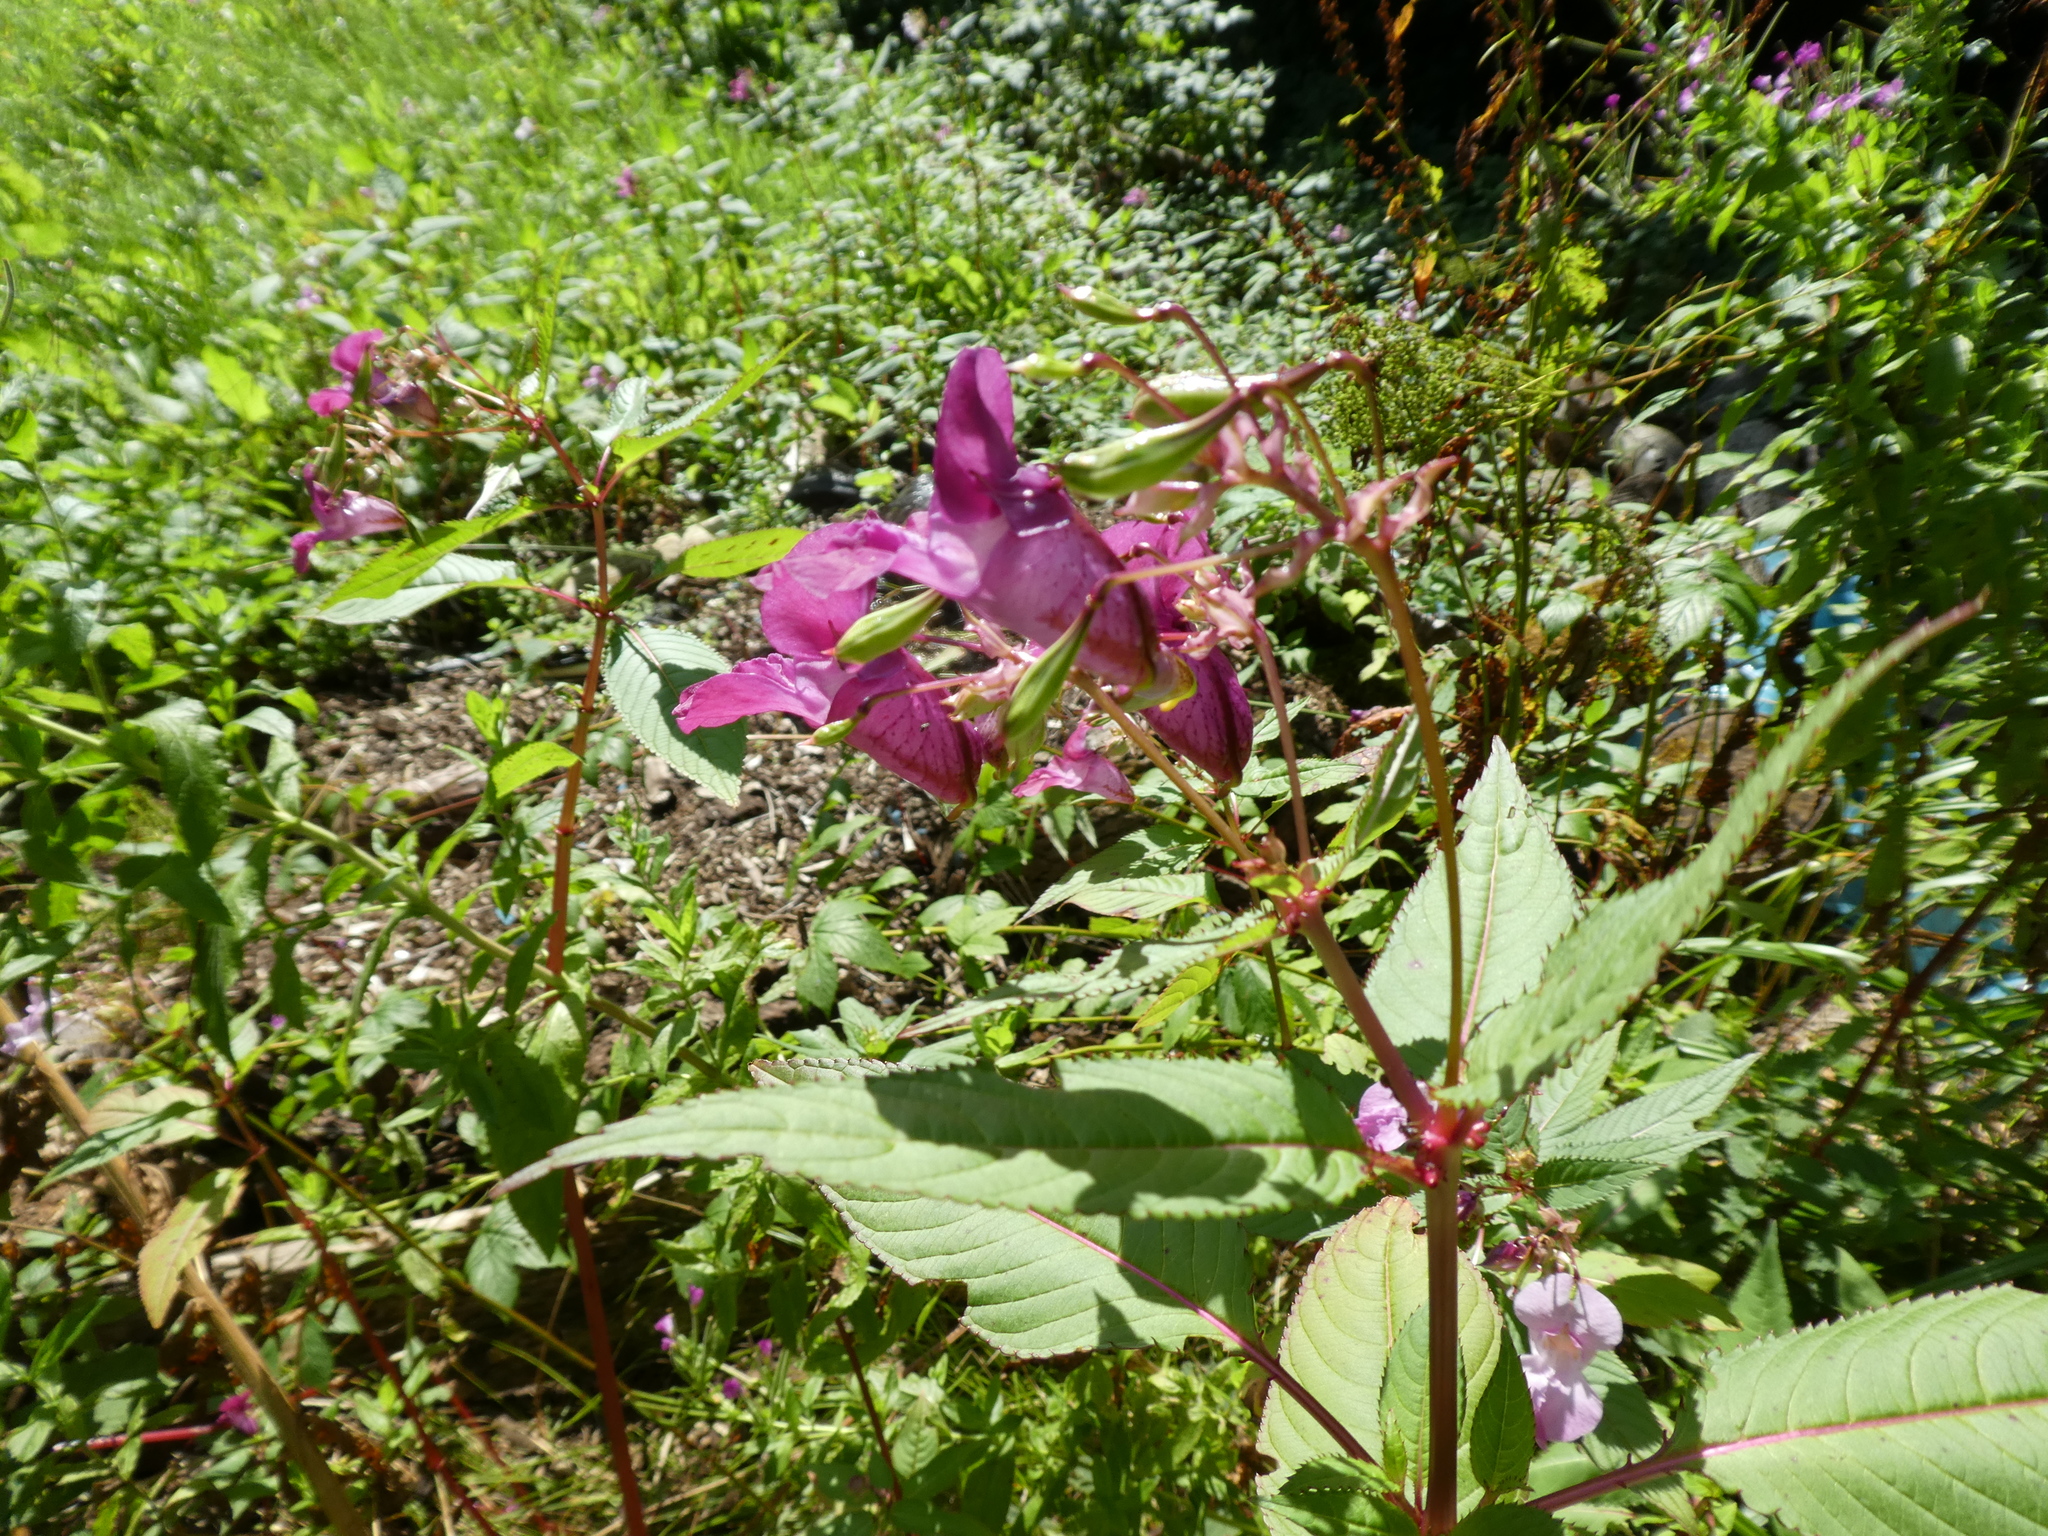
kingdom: Plantae
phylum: Tracheophyta
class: Magnoliopsida
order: Ericales
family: Balsaminaceae
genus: Impatiens
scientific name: Impatiens glandulifera
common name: Himalayan balsam
